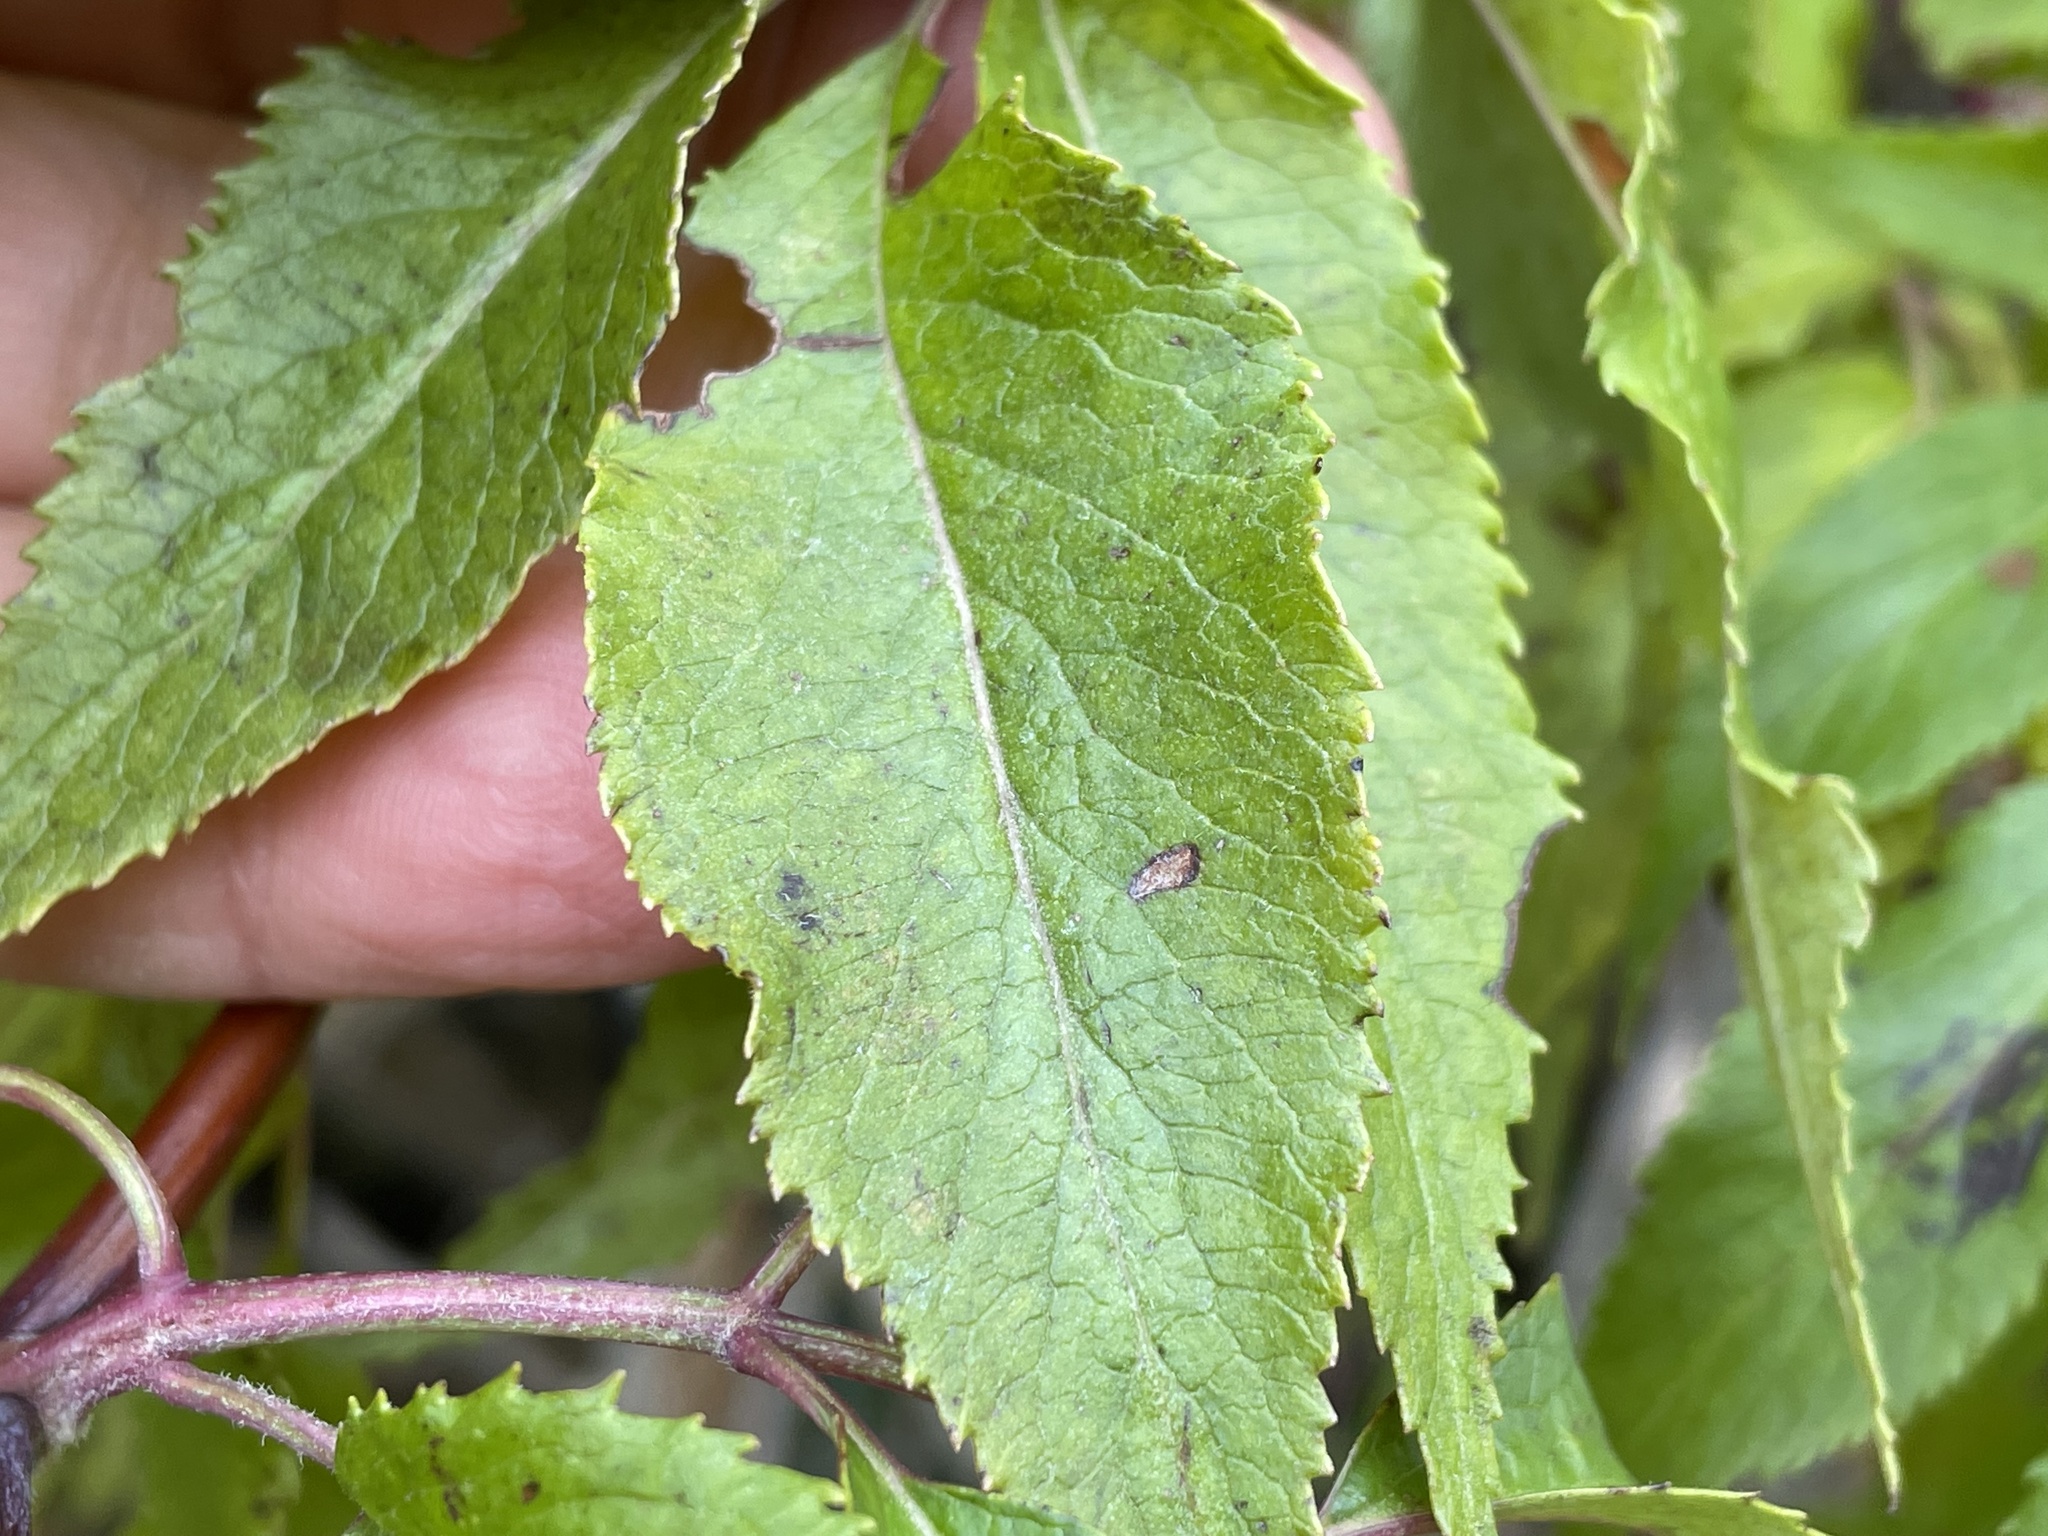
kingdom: Plantae
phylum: Tracheophyta
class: Magnoliopsida
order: Dipsacales
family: Viburnaceae
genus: Sambucus
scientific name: Sambucus cerulea
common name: Blue elder
